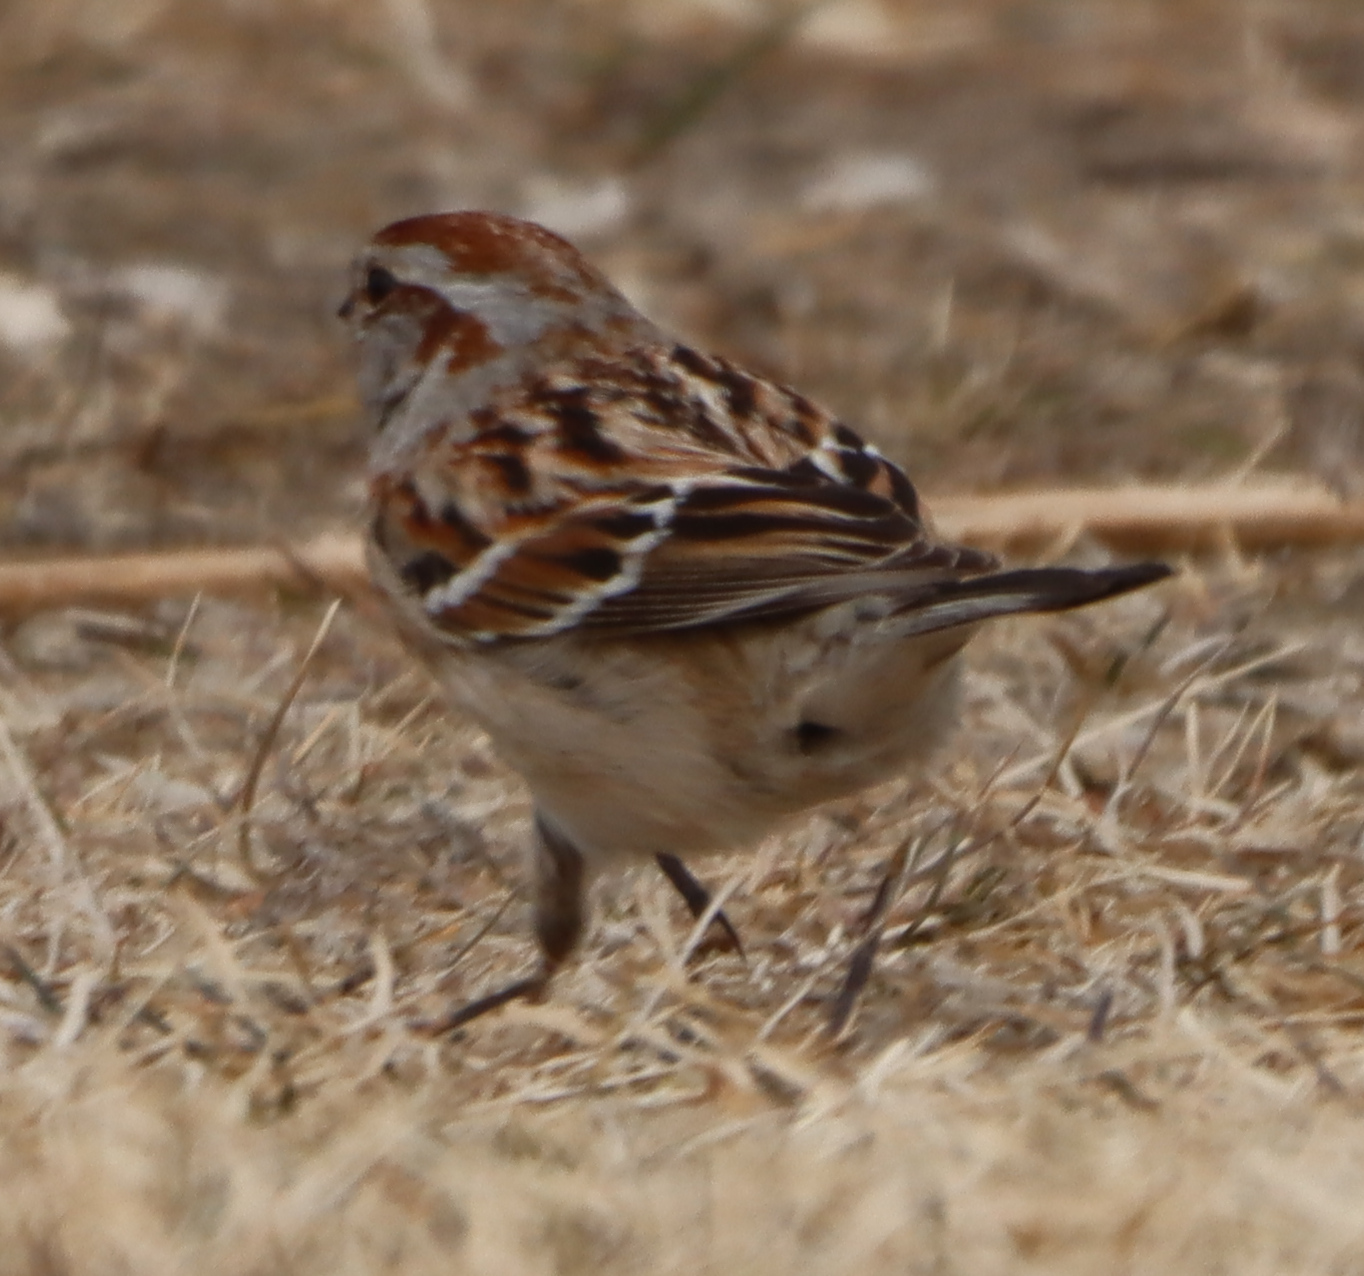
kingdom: Animalia
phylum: Chordata
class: Aves
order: Passeriformes
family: Passerellidae
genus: Spizelloides
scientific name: Spizelloides arborea
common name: American tree sparrow
